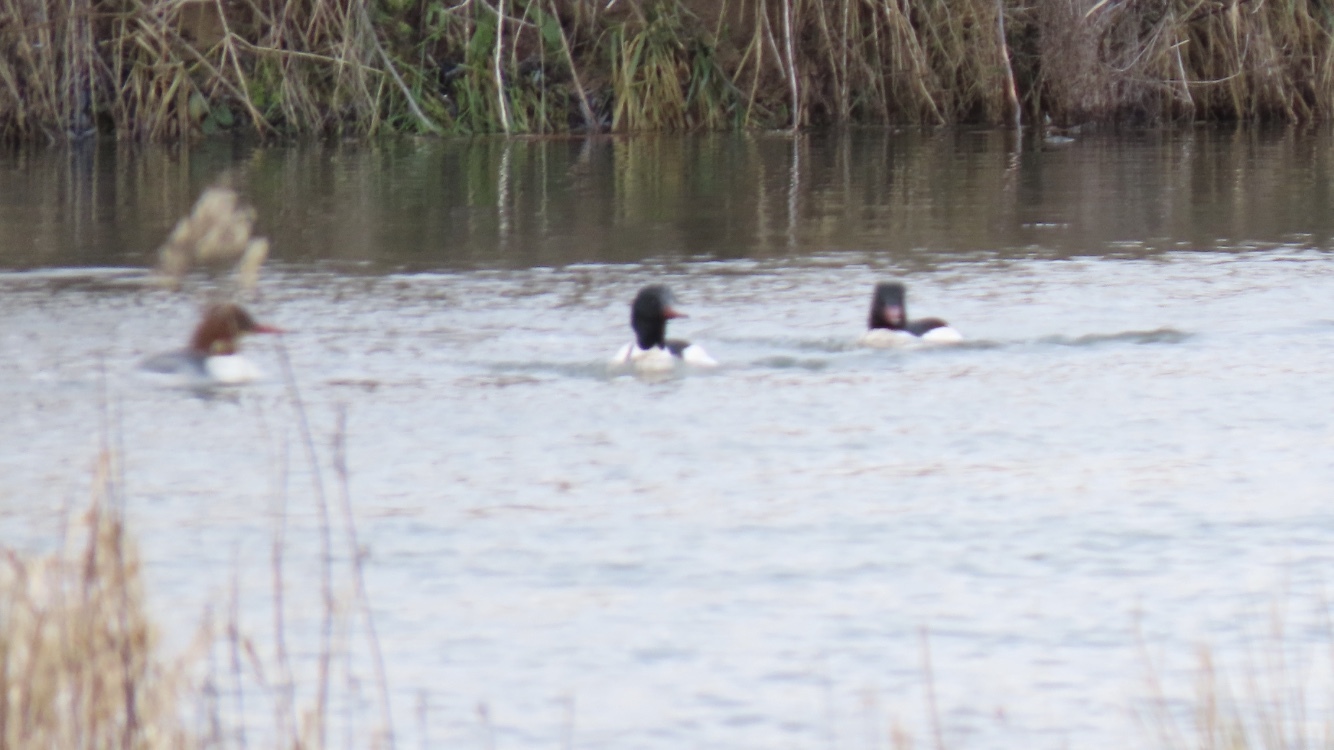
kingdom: Animalia
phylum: Chordata
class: Aves
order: Anseriformes
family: Anatidae
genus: Mergus
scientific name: Mergus merganser
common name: Common merganser
